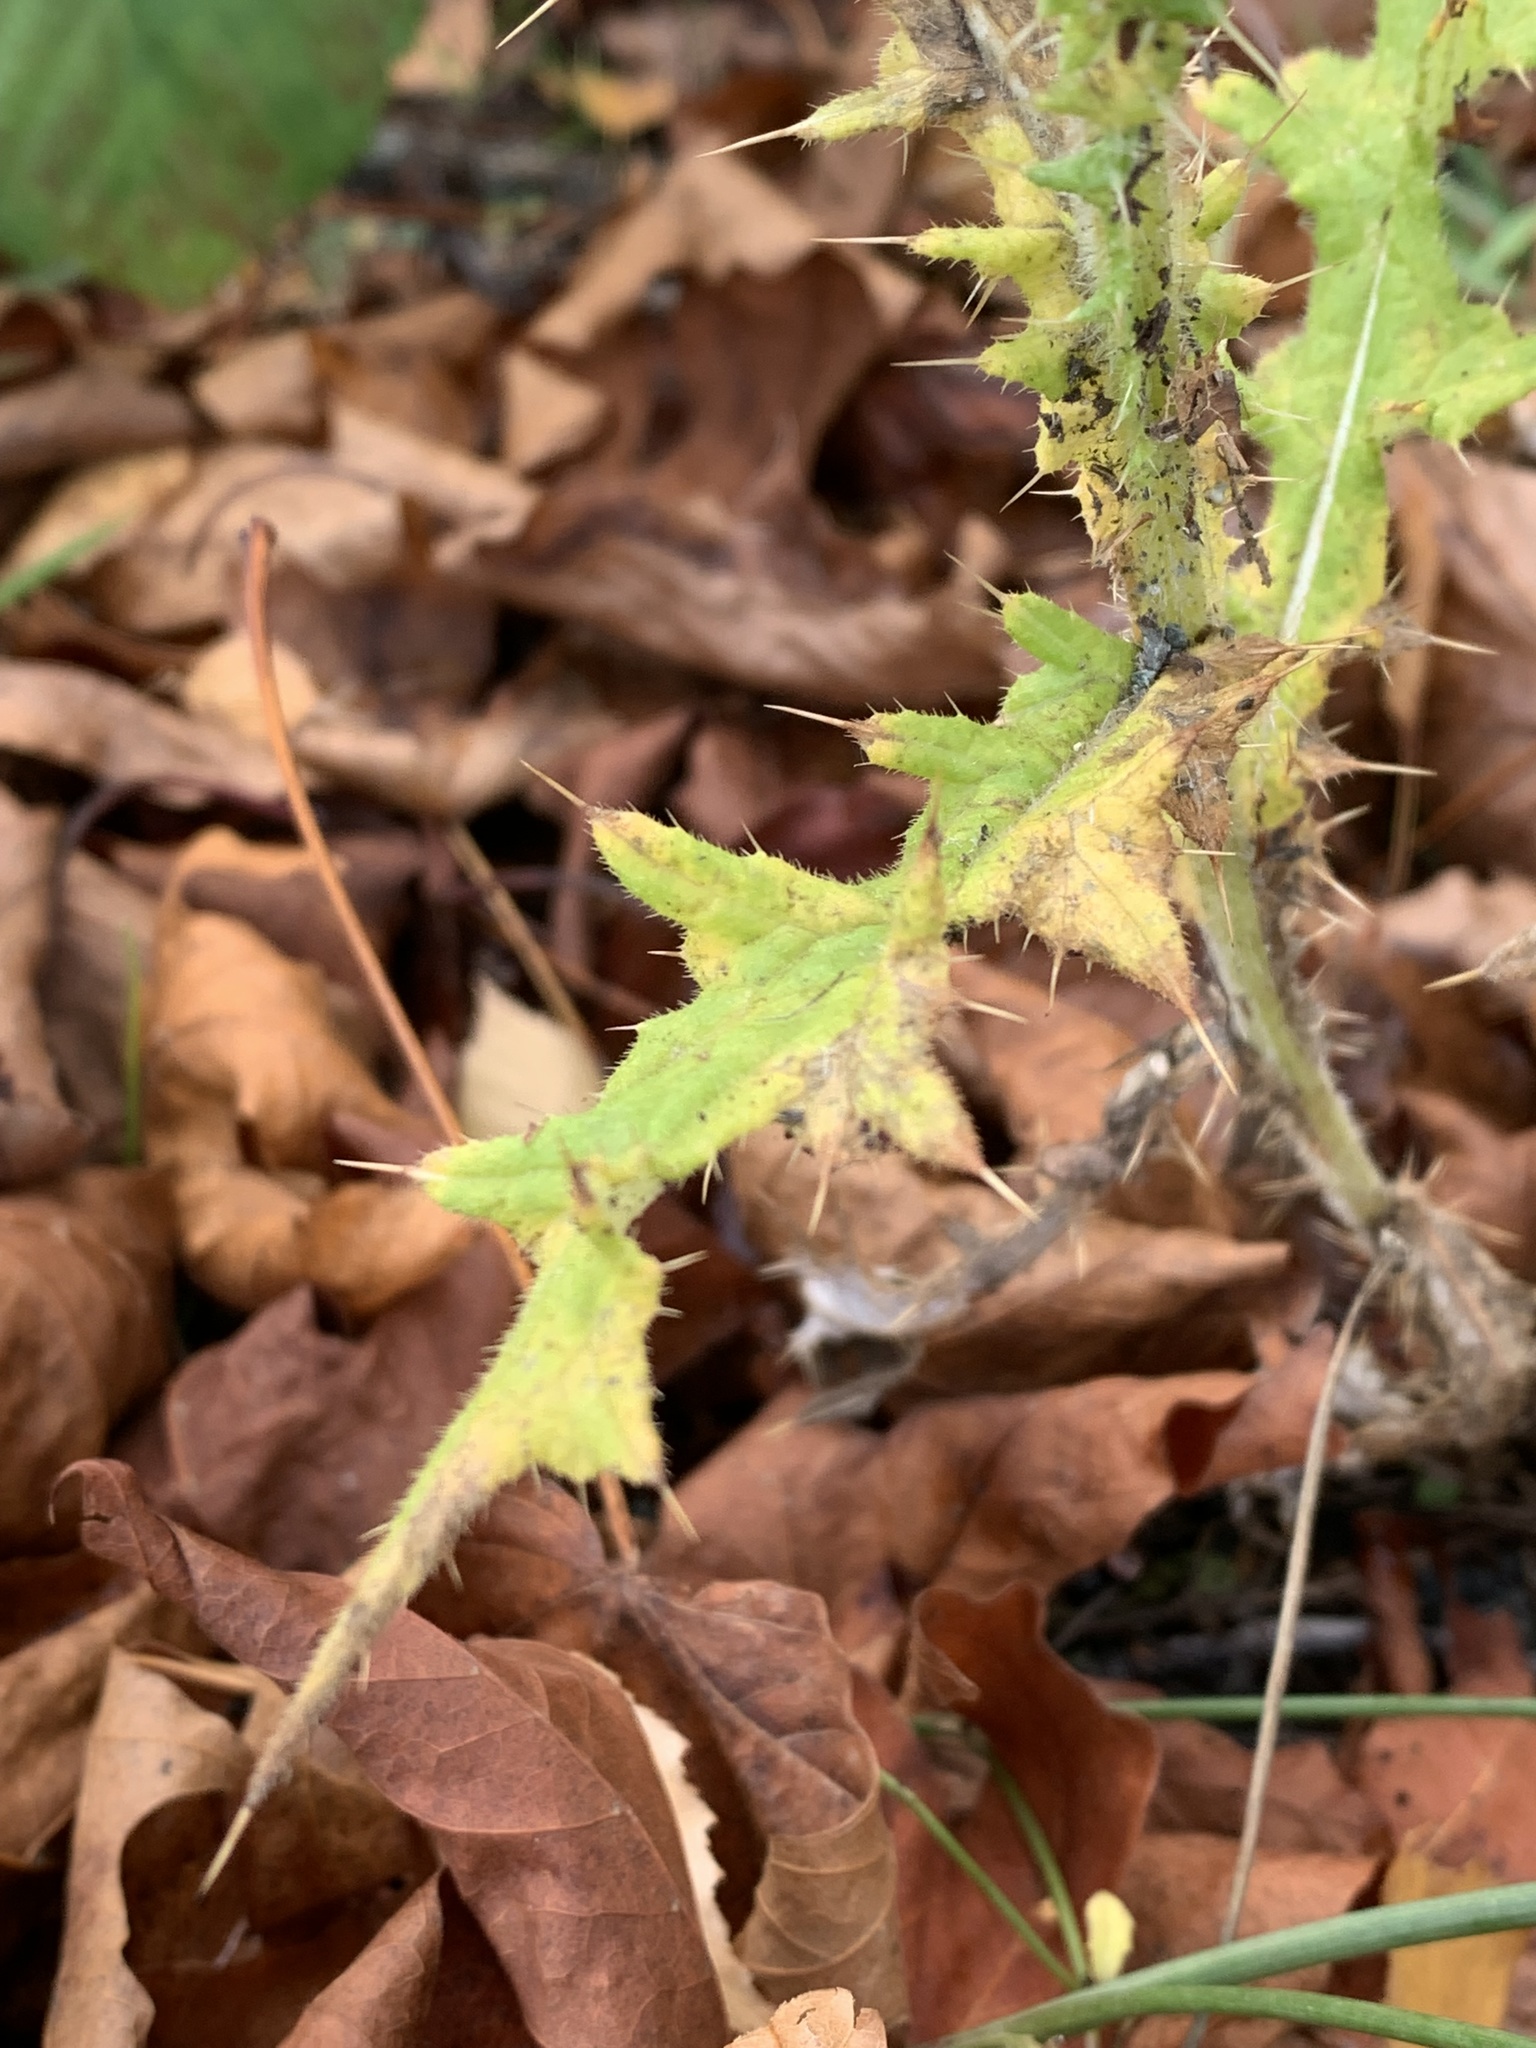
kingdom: Plantae
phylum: Tracheophyta
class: Magnoliopsida
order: Asterales
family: Asteraceae
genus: Cirsium
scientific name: Cirsium vulgare
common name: Bull thistle
